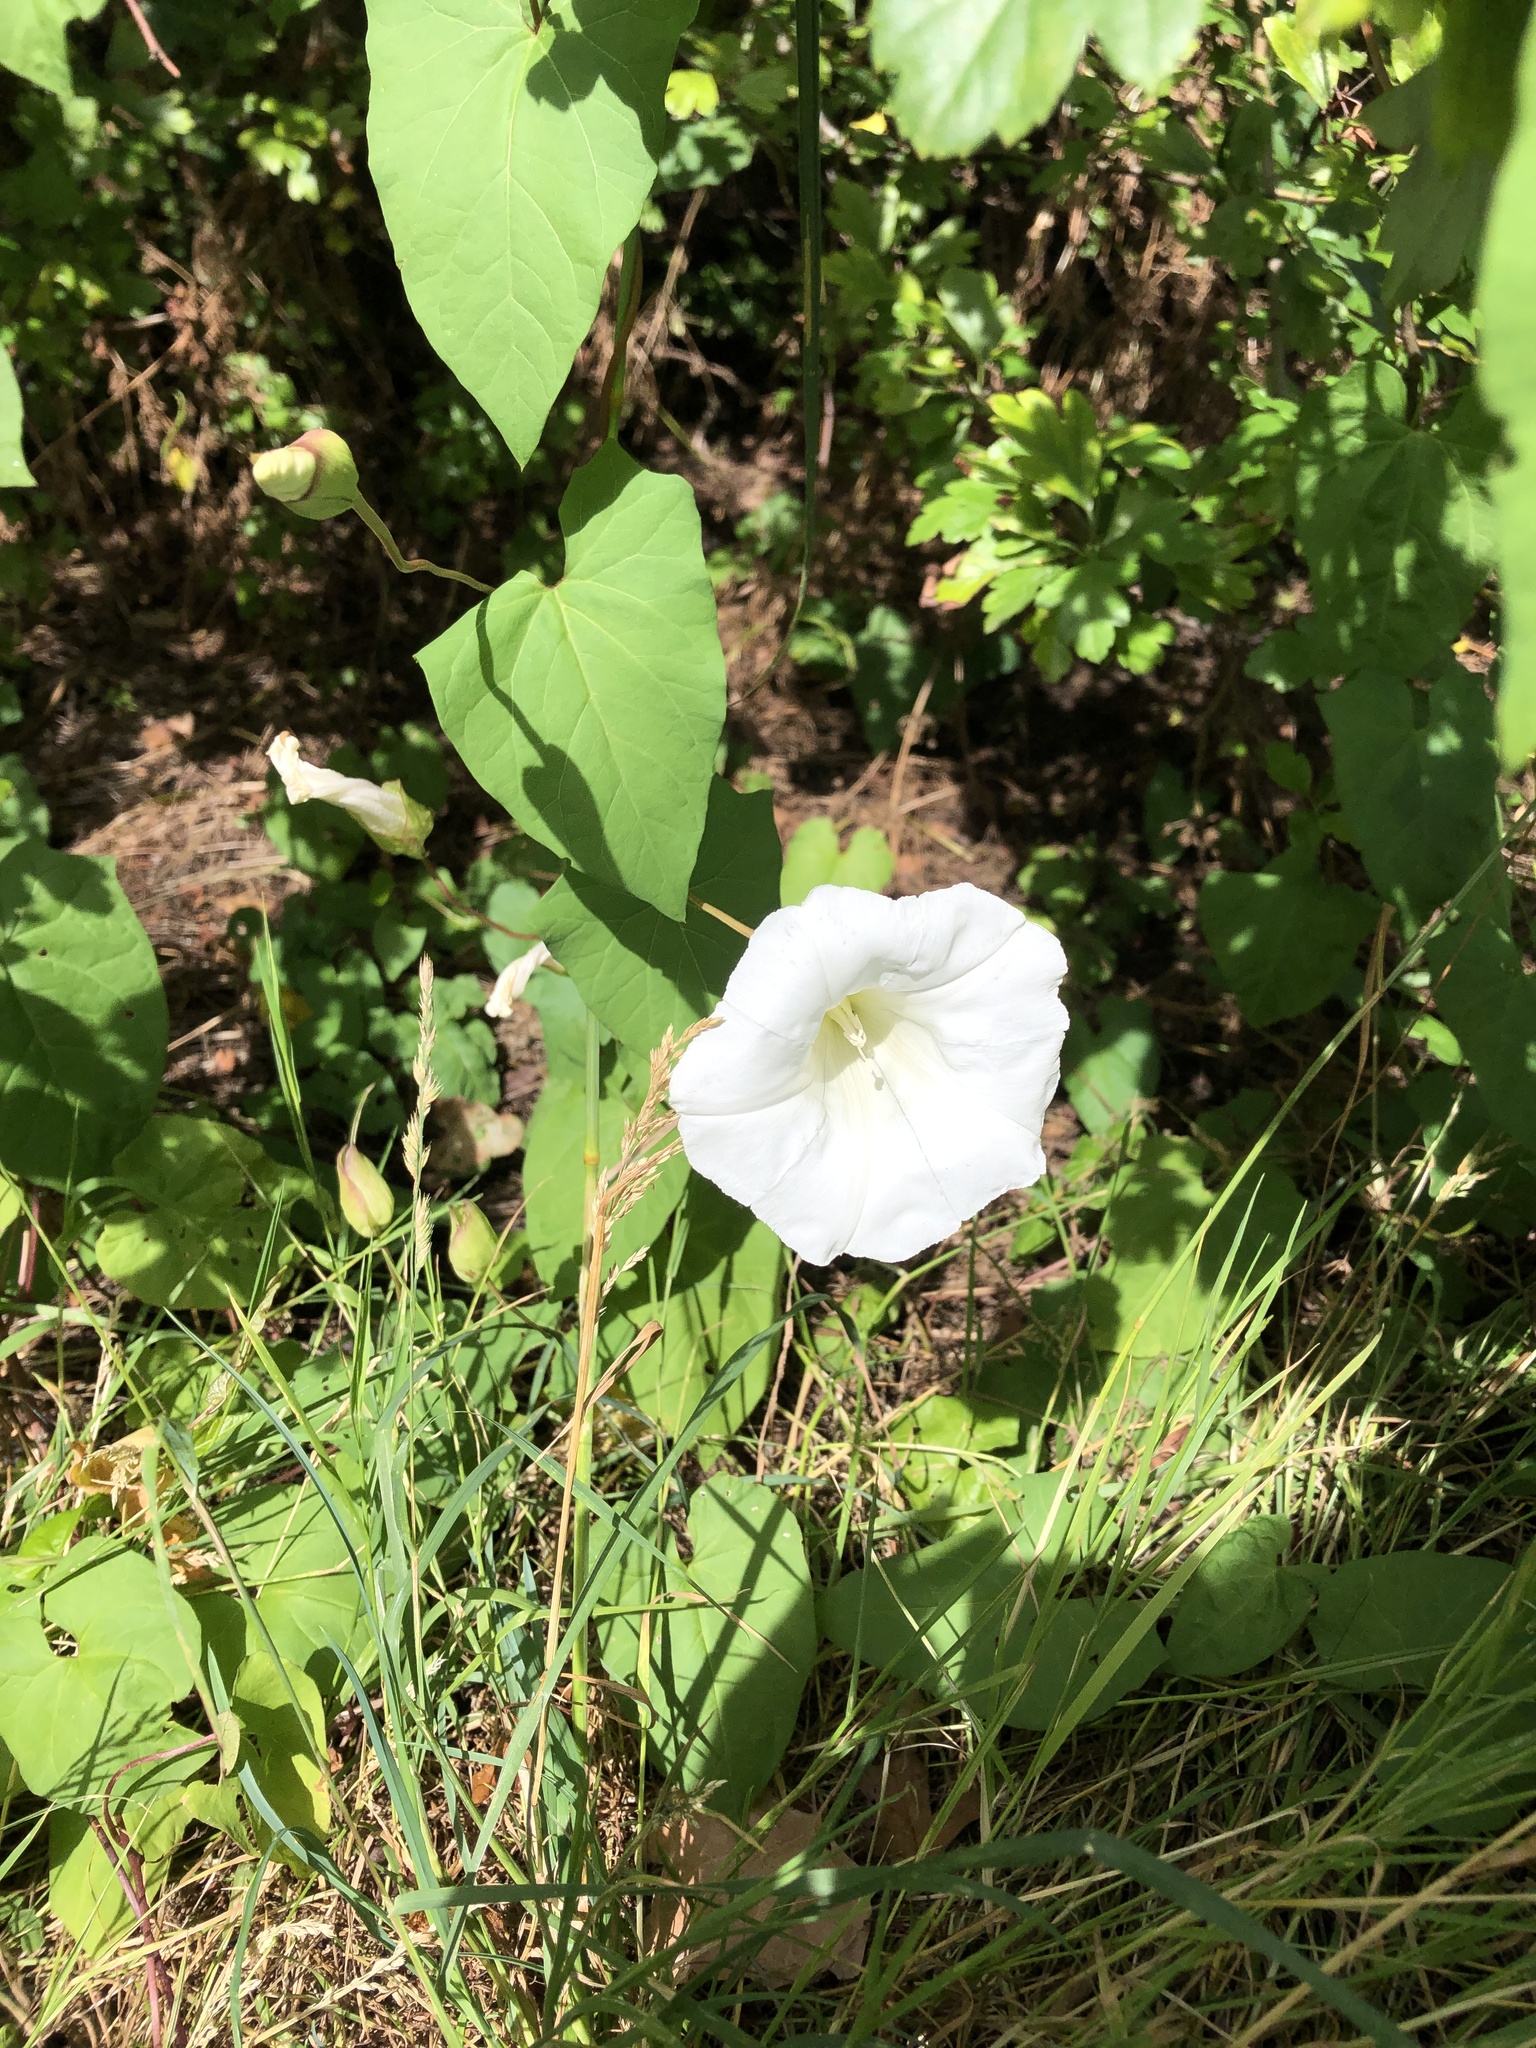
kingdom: Plantae
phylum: Tracheophyta
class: Magnoliopsida
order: Solanales
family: Convolvulaceae
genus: Calystegia
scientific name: Calystegia silvatica
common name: Large bindweed
